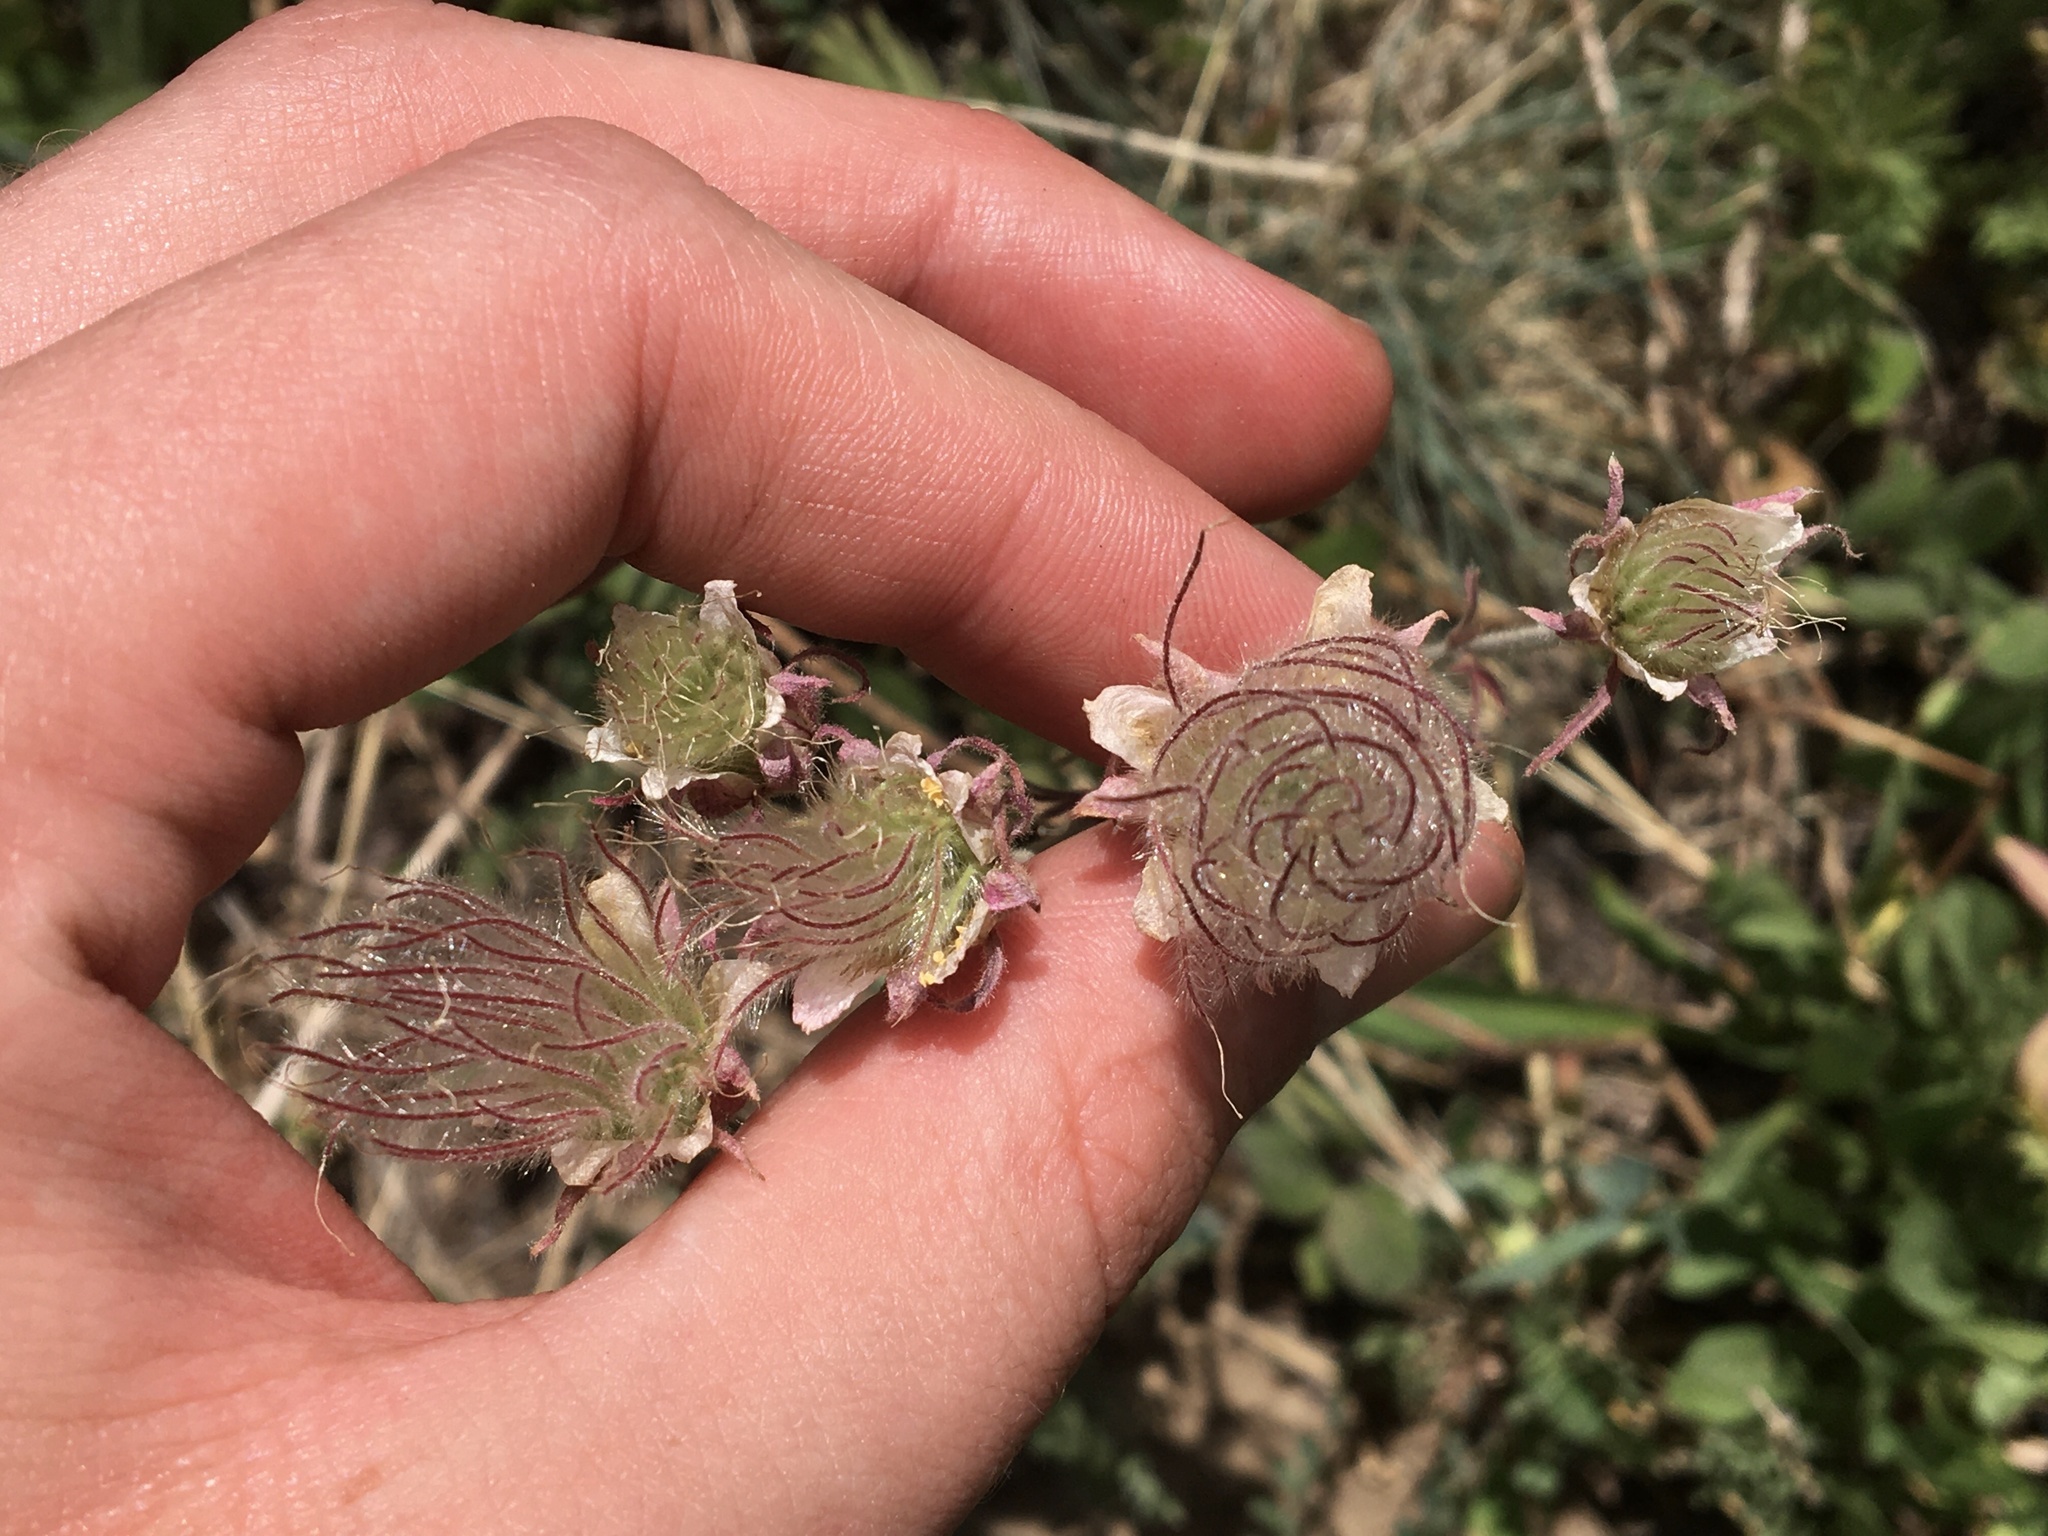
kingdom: Plantae
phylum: Tracheophyta
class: Magnoliopsida
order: Rosales
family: Rosaceae
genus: Geum
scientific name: Geum triflorum
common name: Old man's whiskers
